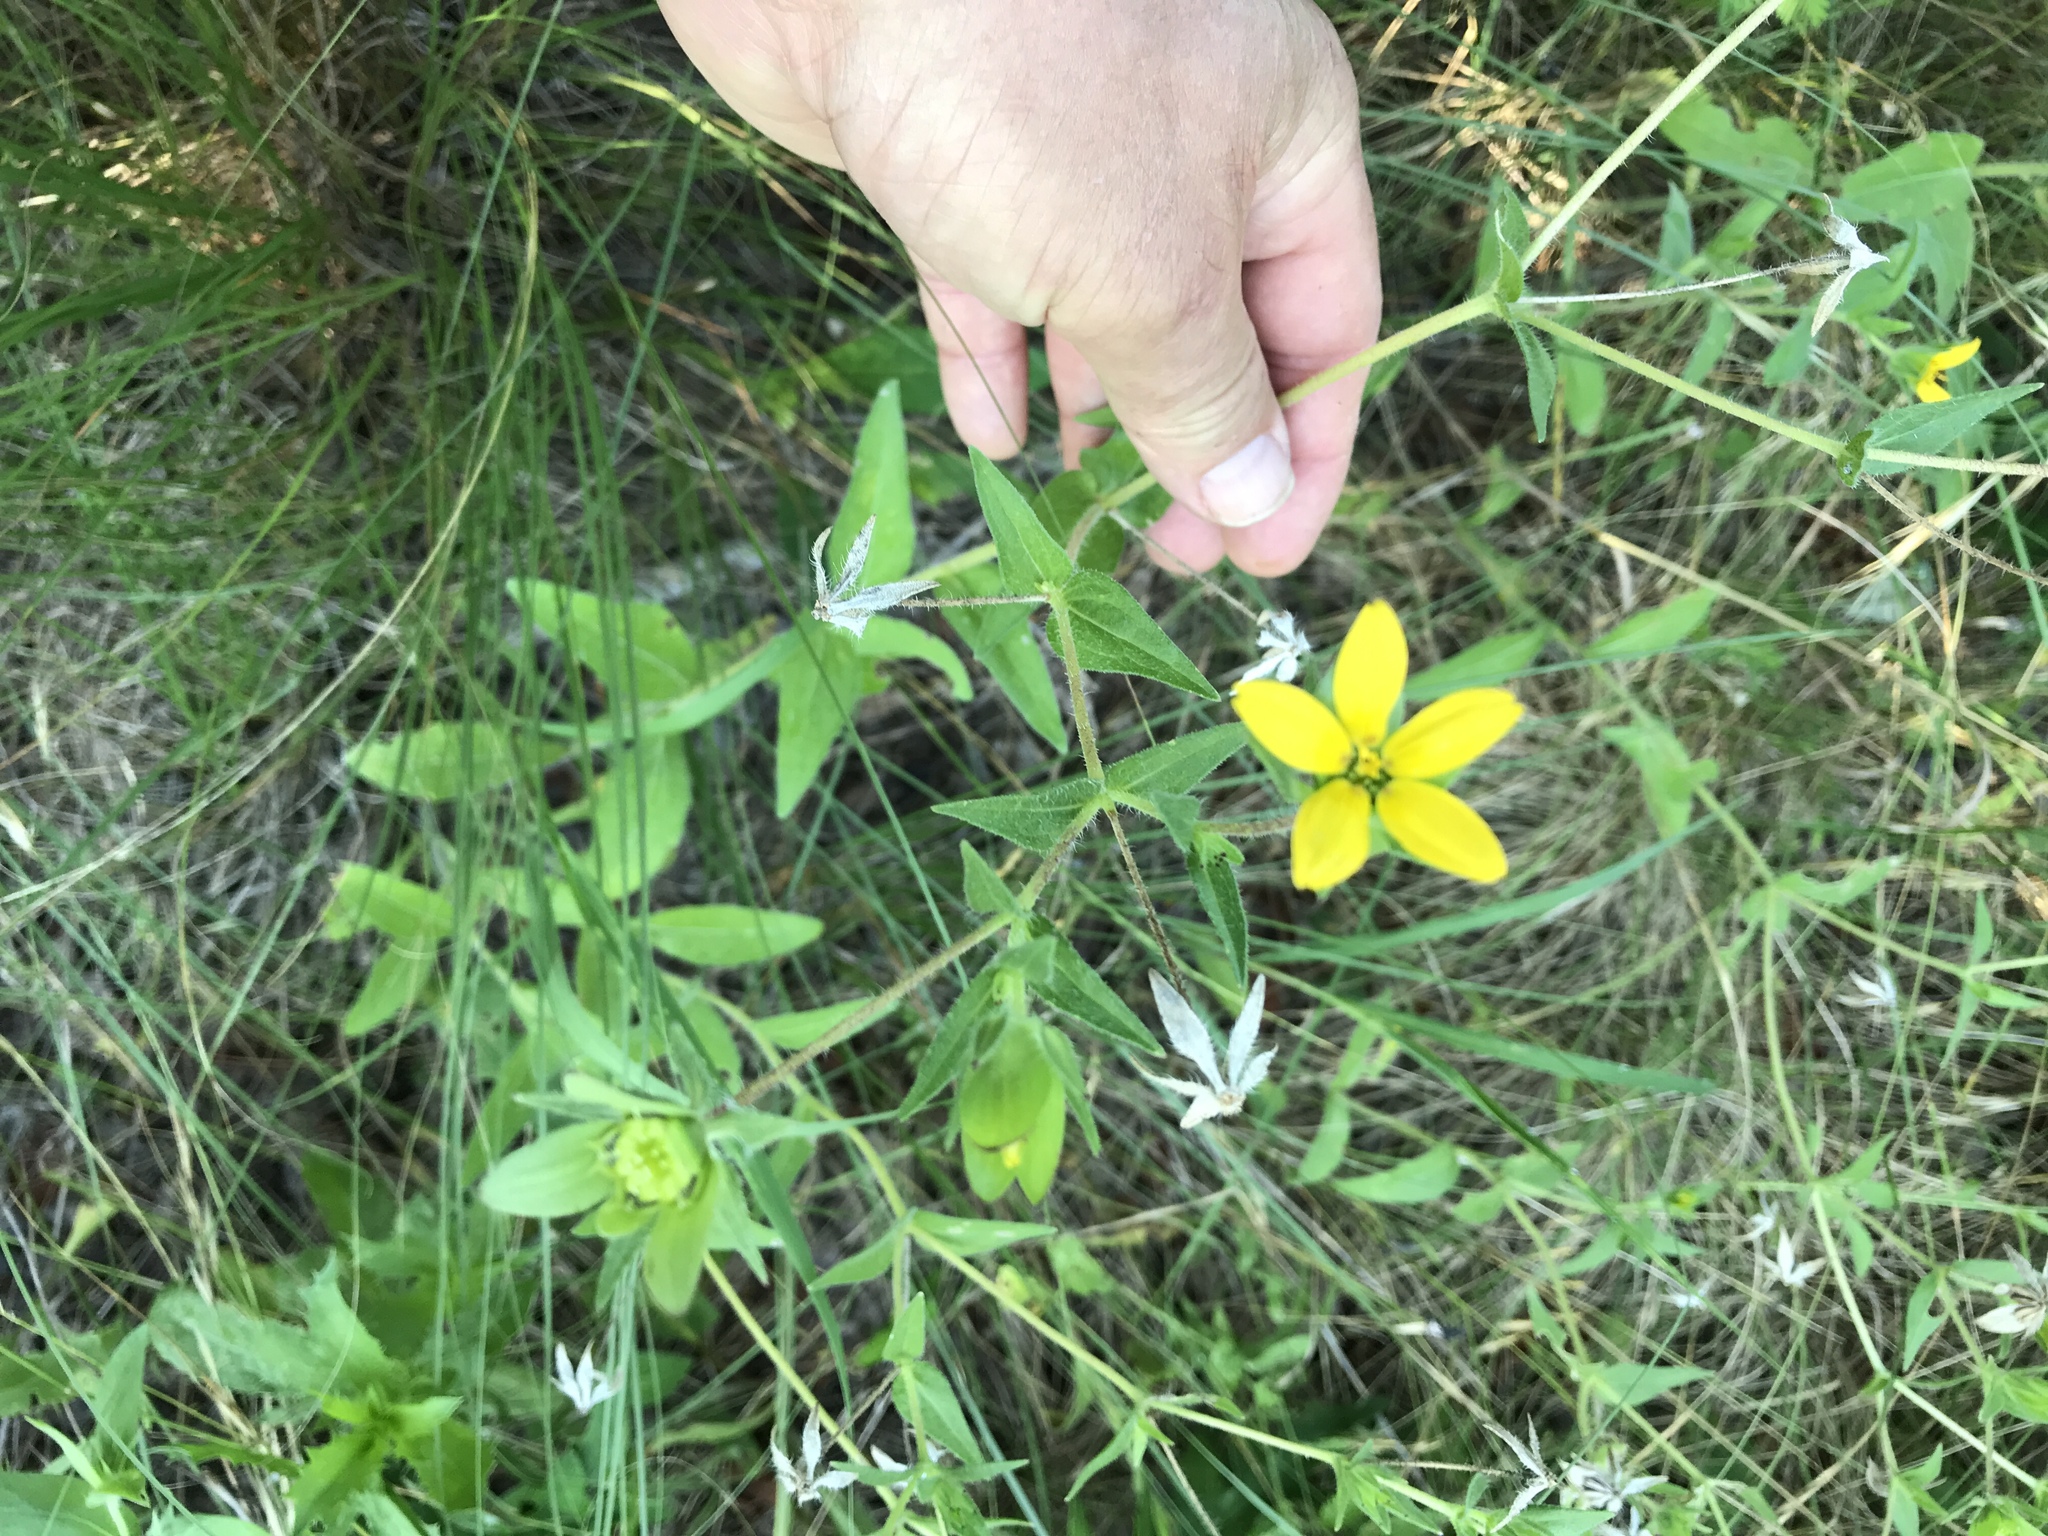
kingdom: Plantae
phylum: Tracheophyta
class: Magnoliopsida
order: Asterales
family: Asteraceae
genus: Lindheimera
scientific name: Lindheimera texana
